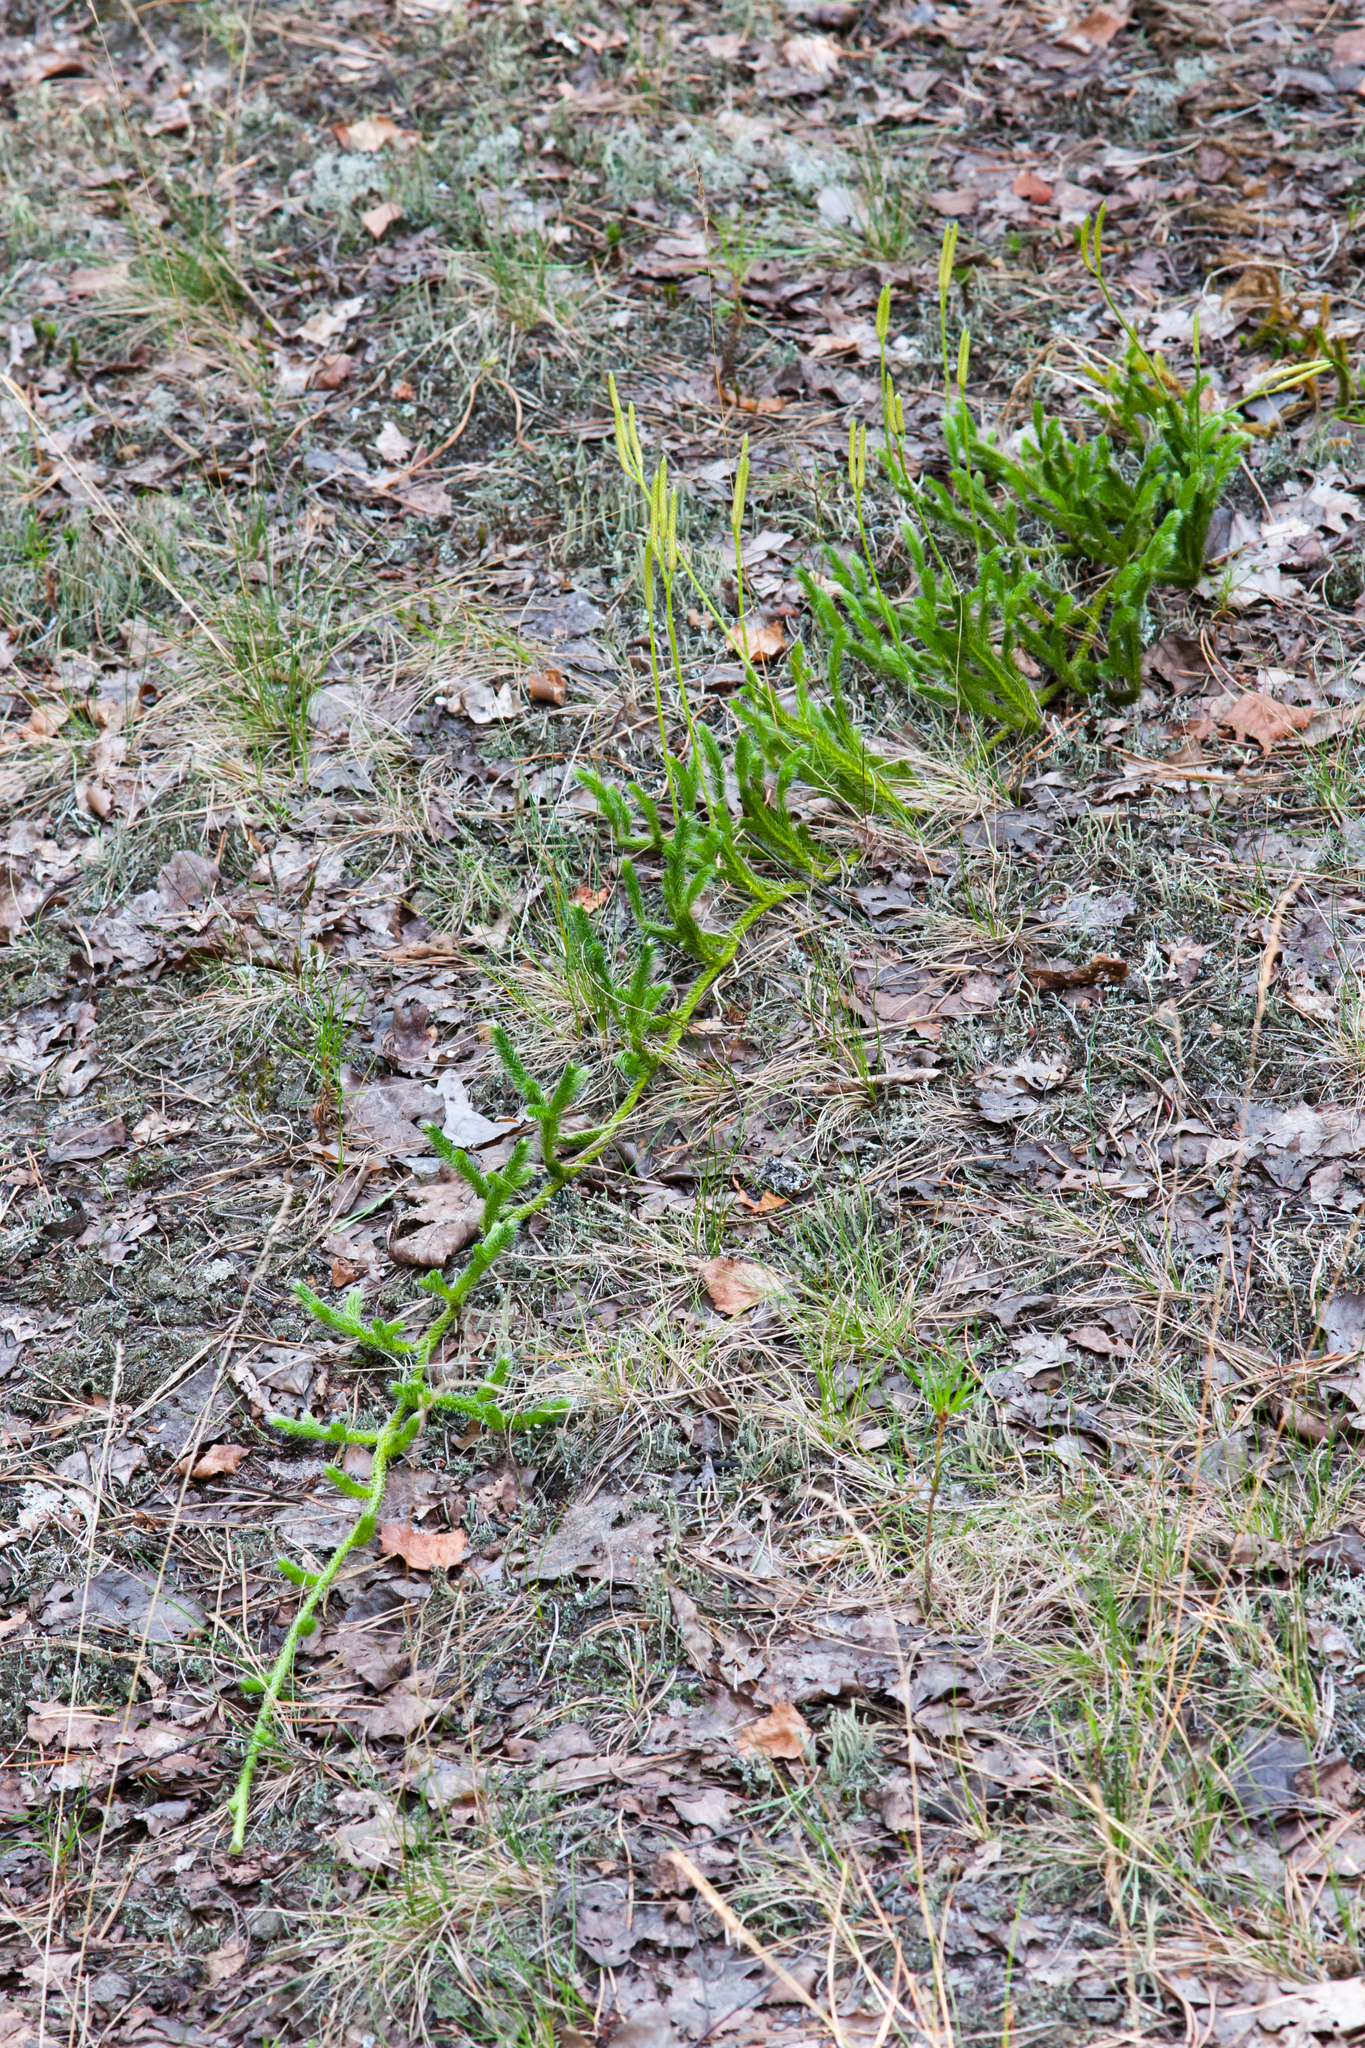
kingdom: Plantae
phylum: Tracheophyta
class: Lycopodiopsida
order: Lycopodiales
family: Lycopodiaceae
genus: Lycopodium
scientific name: Lycopodium clavatum
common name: Stag's-horn clubmoss
